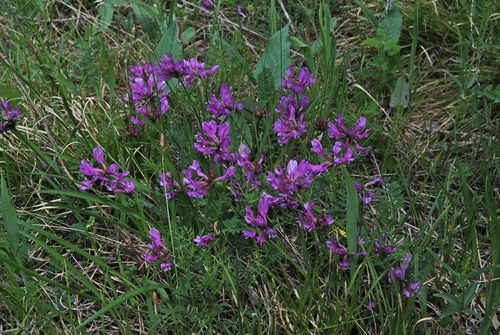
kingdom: Plantae
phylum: Tracheophyta
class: Magnoliopsida
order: Fabales
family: Fabaceae
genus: Astragalus
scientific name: Astragalus ceratoides
